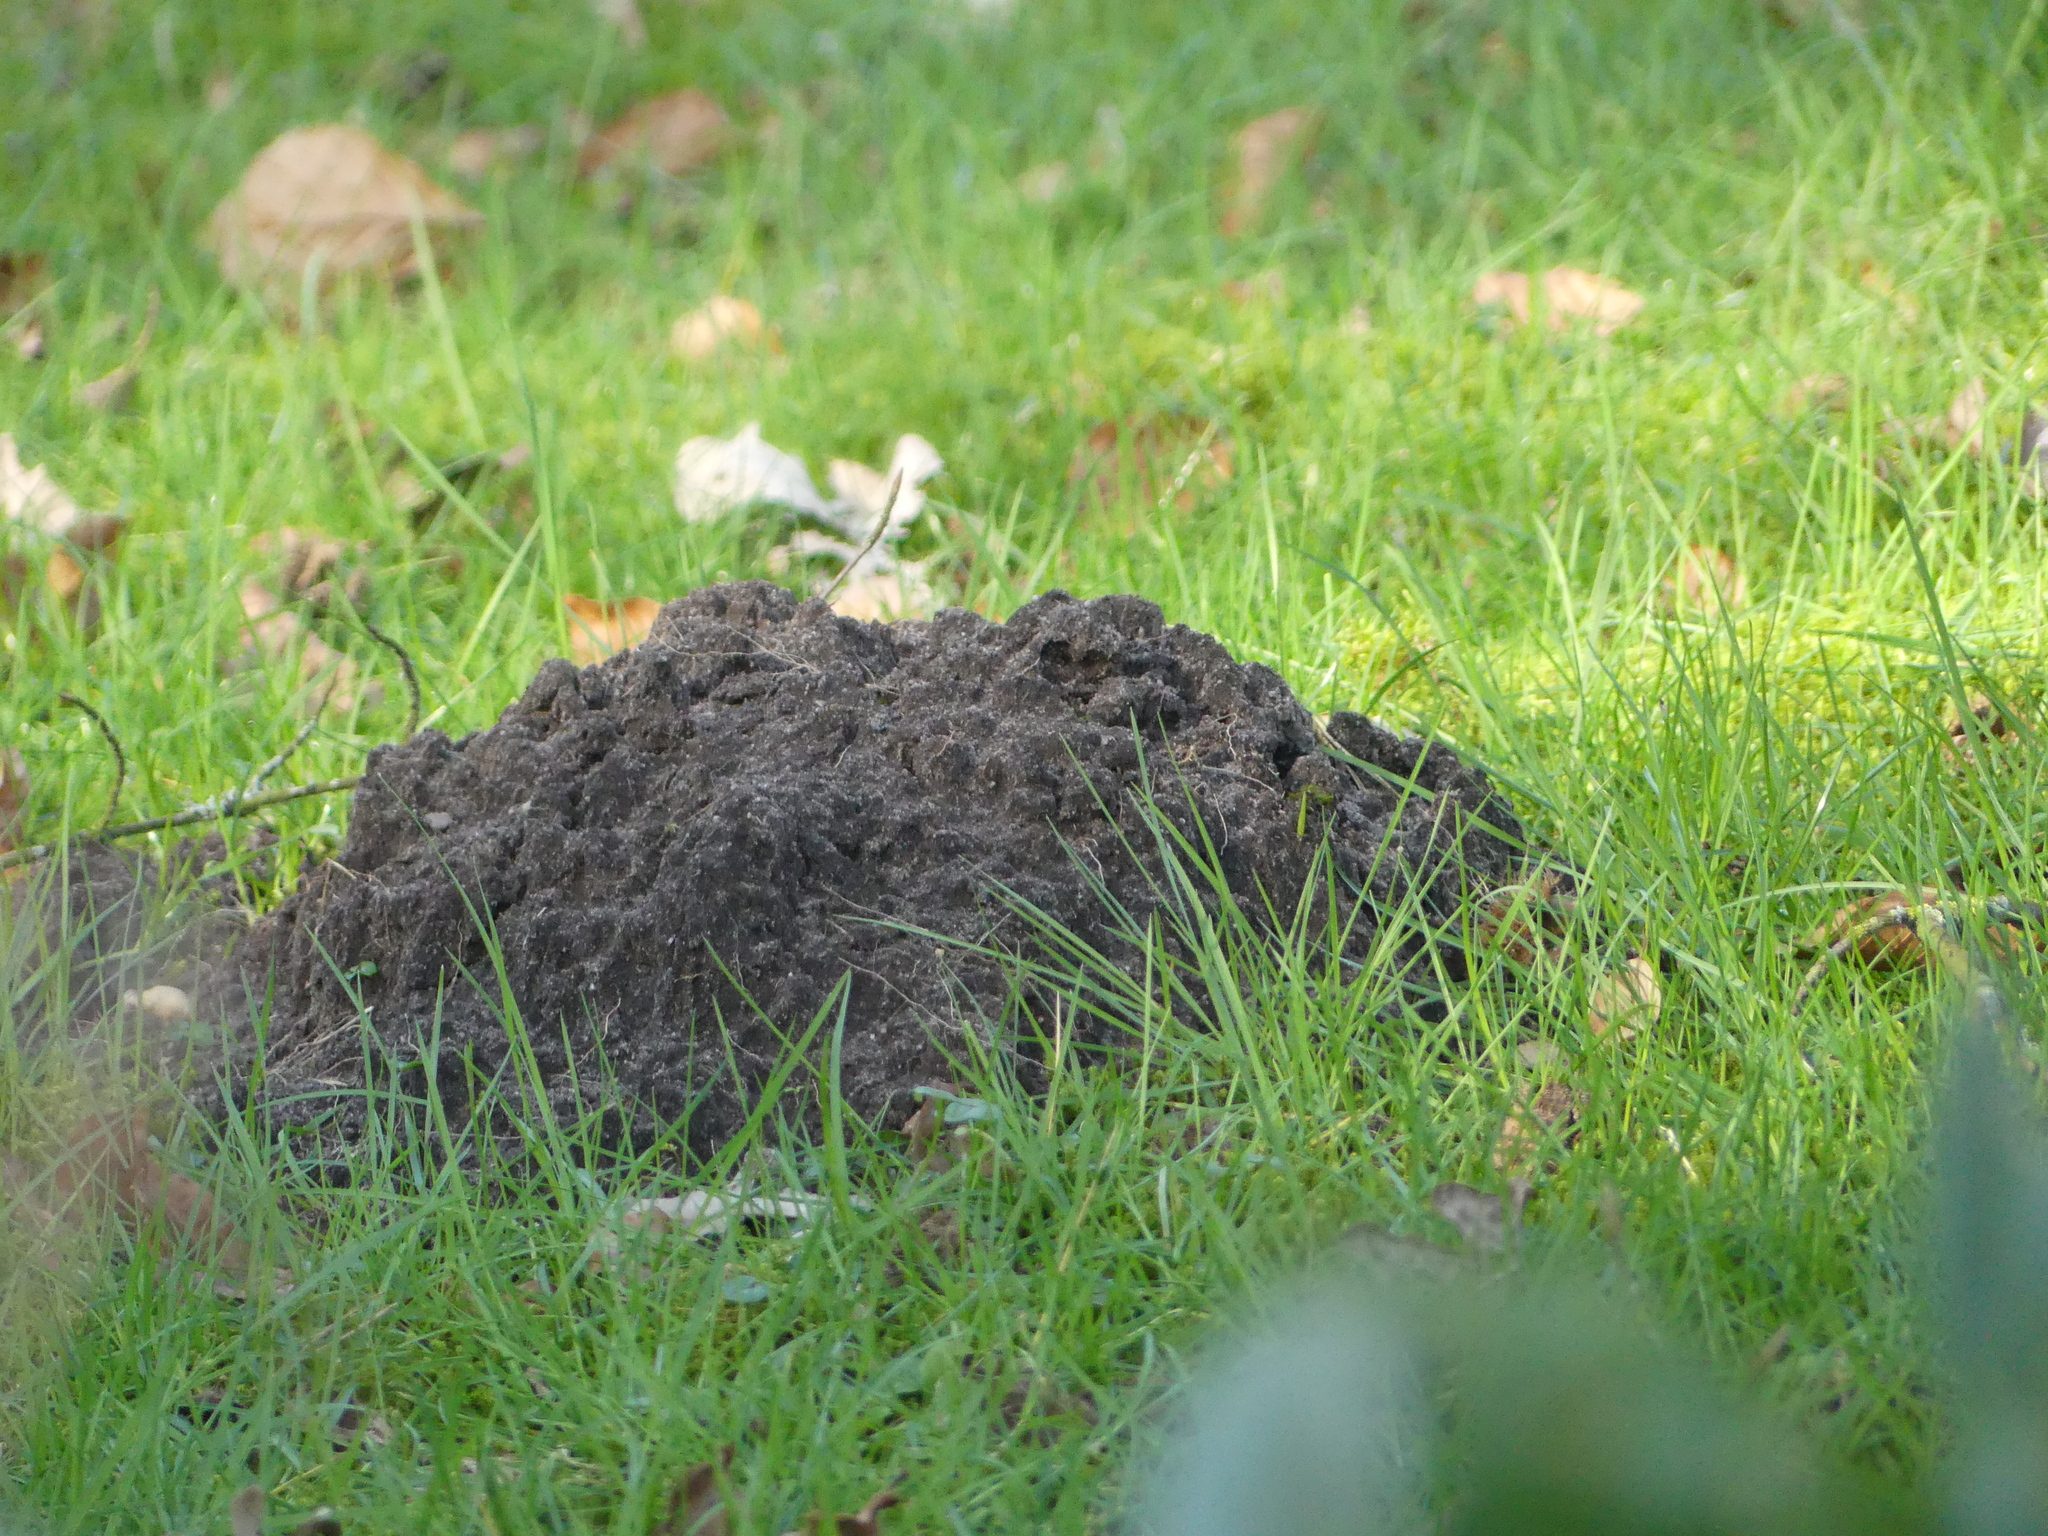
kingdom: Animalia
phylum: Chordata
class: Mammalia
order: Soricomorpha
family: Talpidae
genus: Talpa
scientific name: Talpa europaea
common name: European mole
